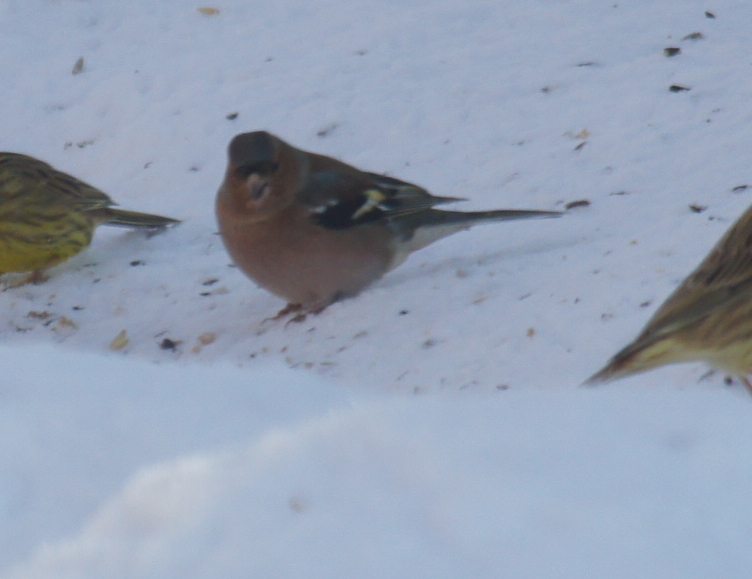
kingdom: Animalia
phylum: Chordata
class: Aves
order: Passeriformes
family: Fringillidae
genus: Fringilla
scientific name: Fringilla coelebs
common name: Common chaffinch
